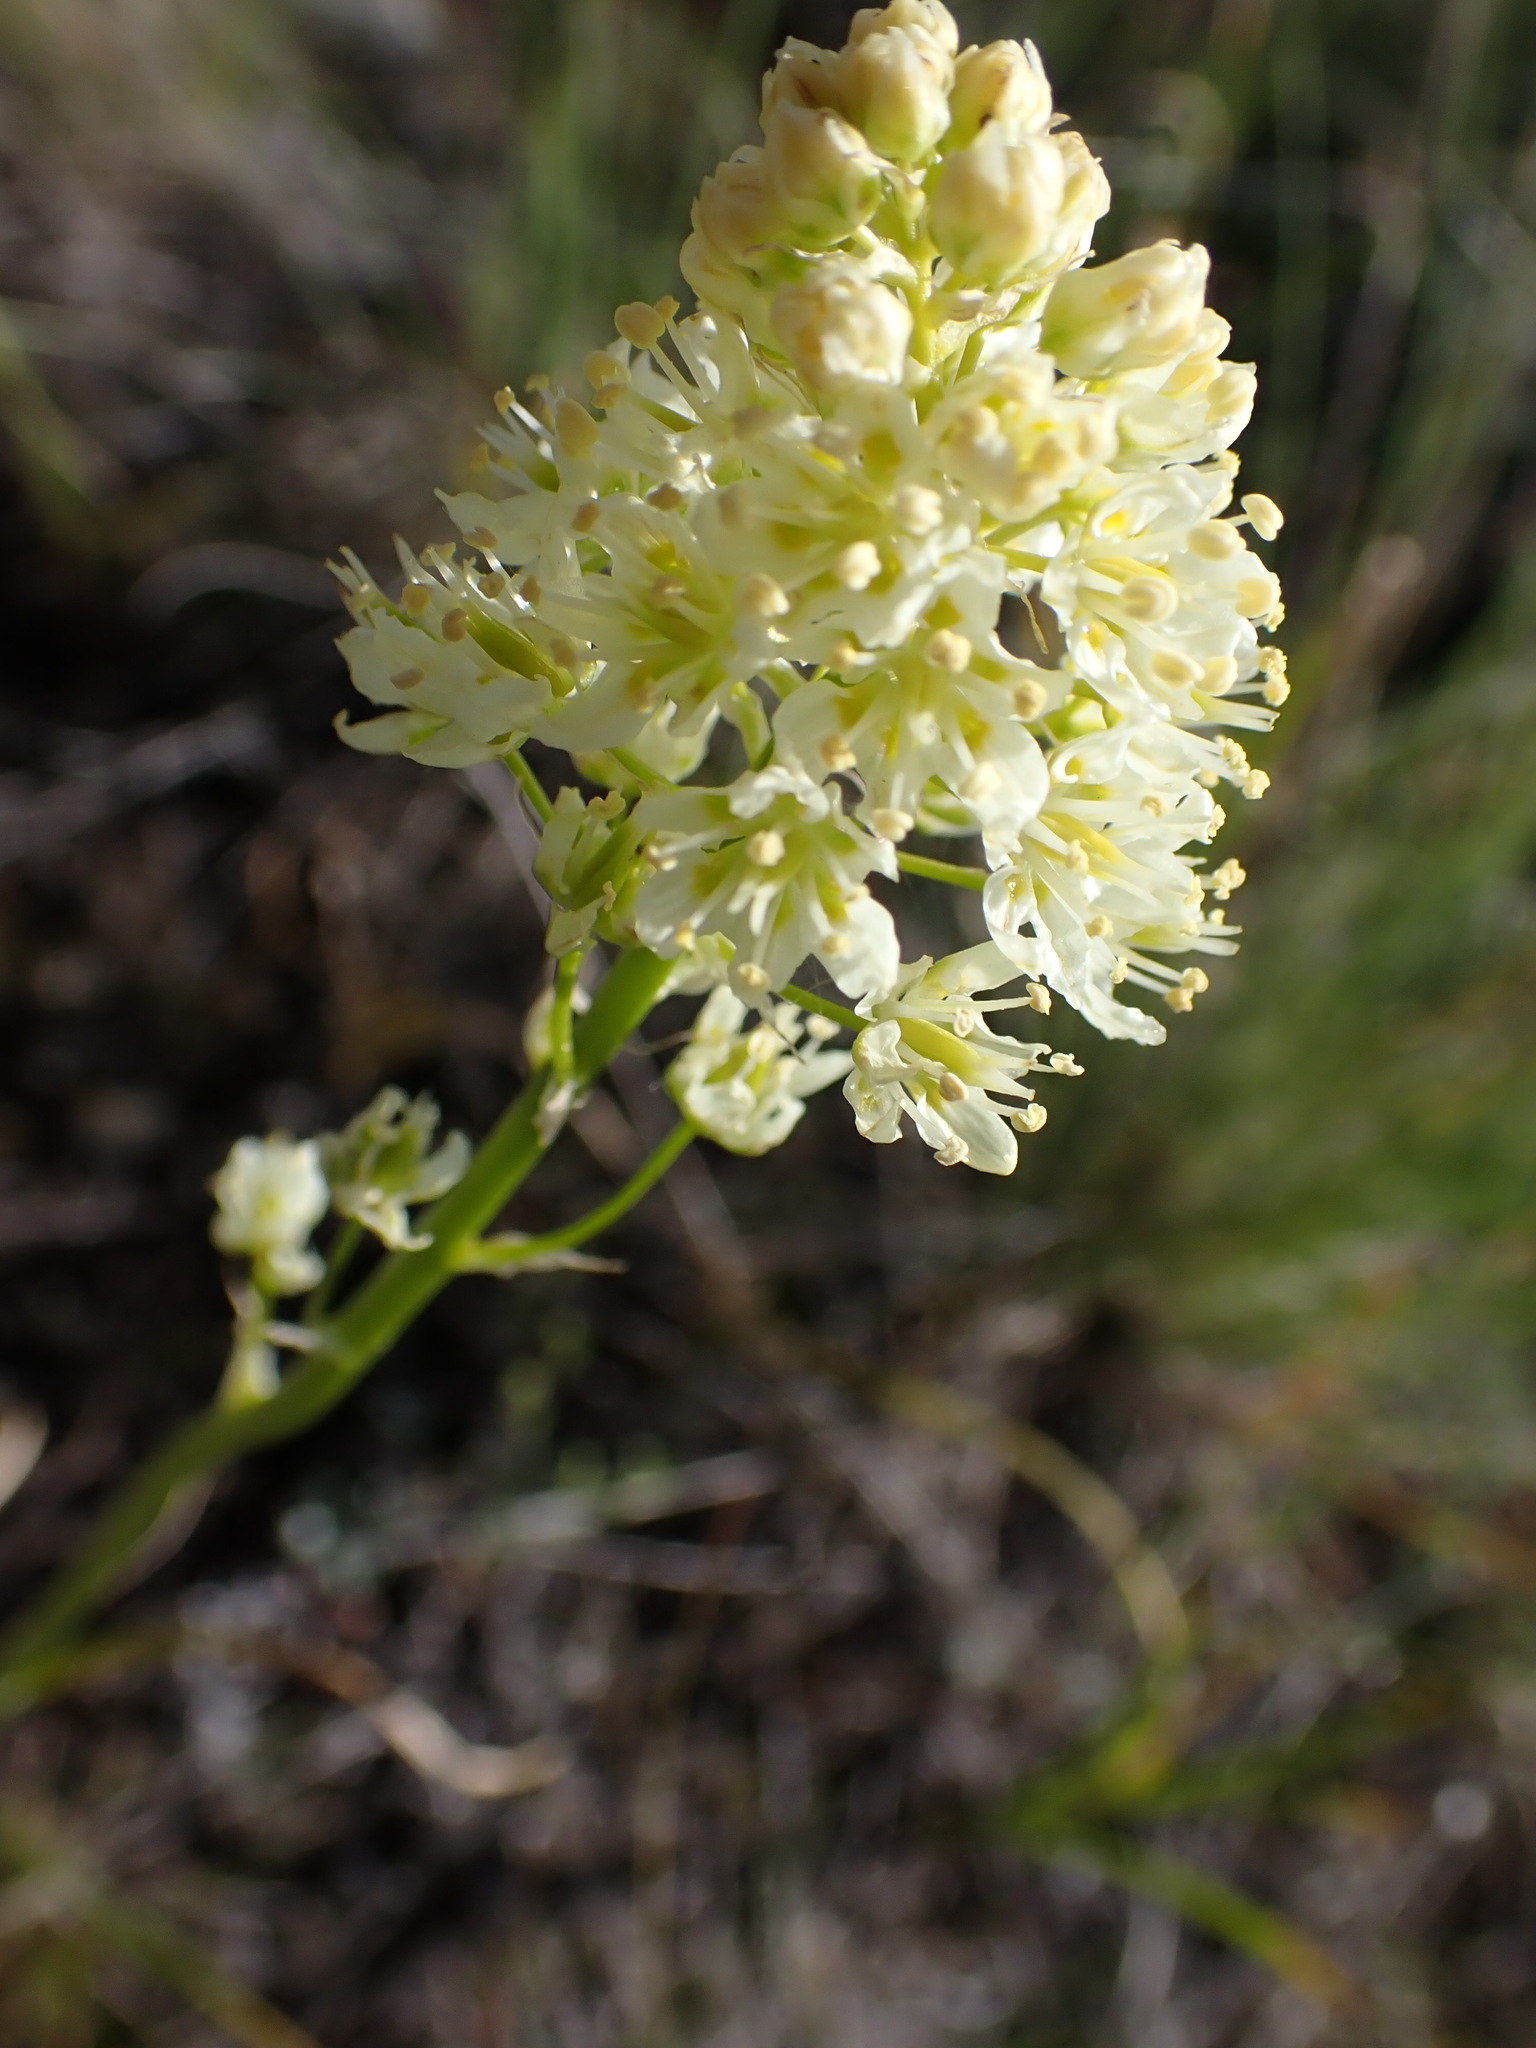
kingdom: Plantae
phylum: Tracheophyta
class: Liliopsida
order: Liliales
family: Melanthiaceae
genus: Toxicoscordion
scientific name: Toxicoscordion venenosum
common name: Meadow death camas
